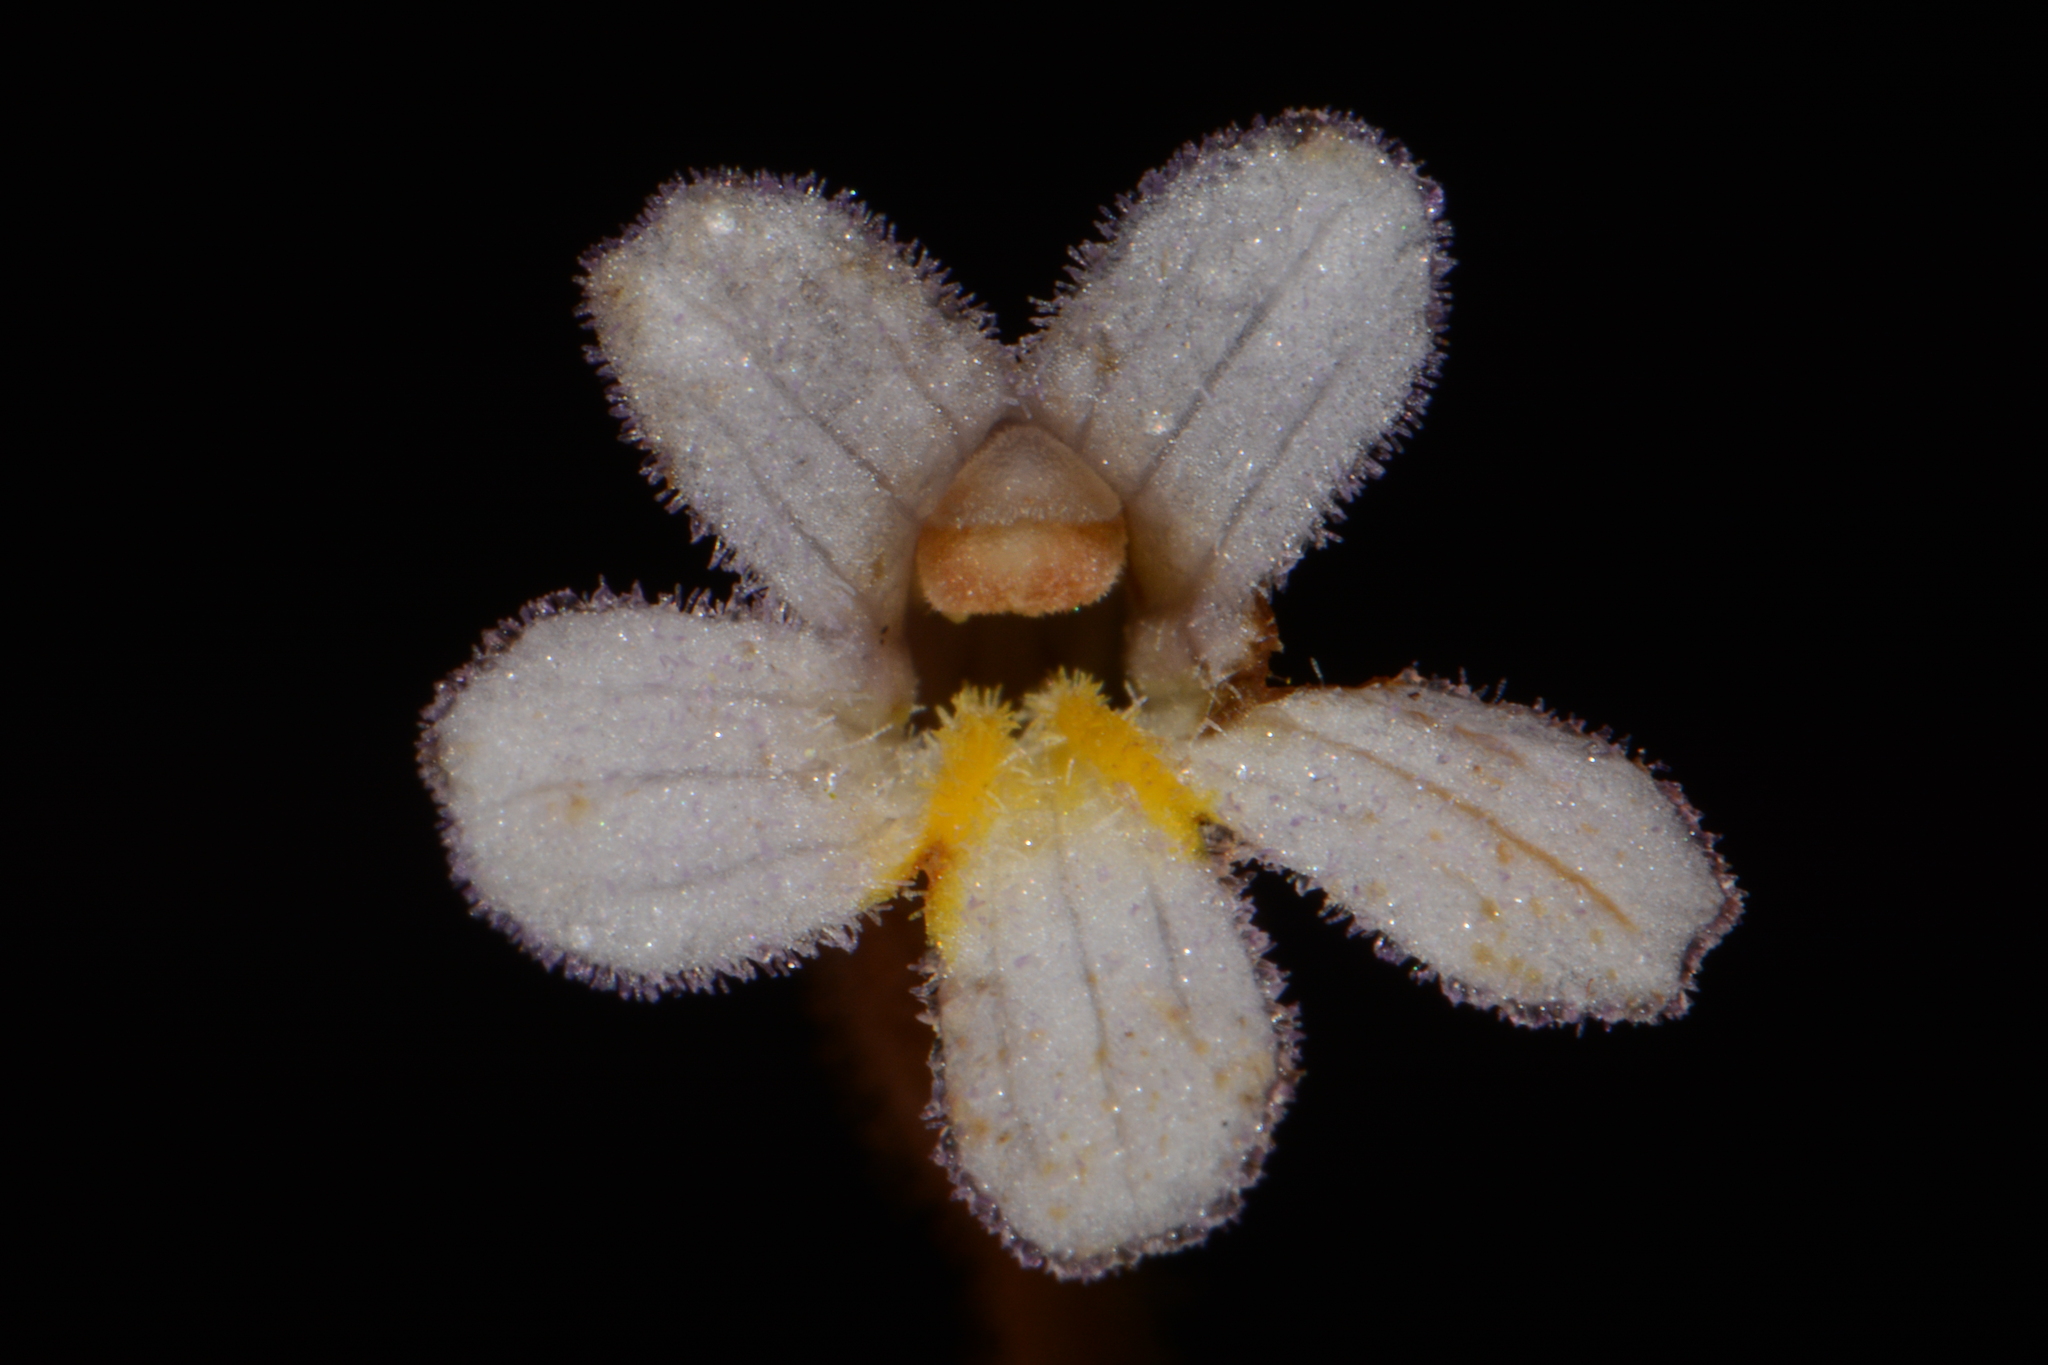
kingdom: Plantae
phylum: Tracheophyta
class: Magnoliopsida
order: Lamiales
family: Orobanchaceae
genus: Aphyllon
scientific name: Aphyllon uniflorum
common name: One-flowered broomrape
